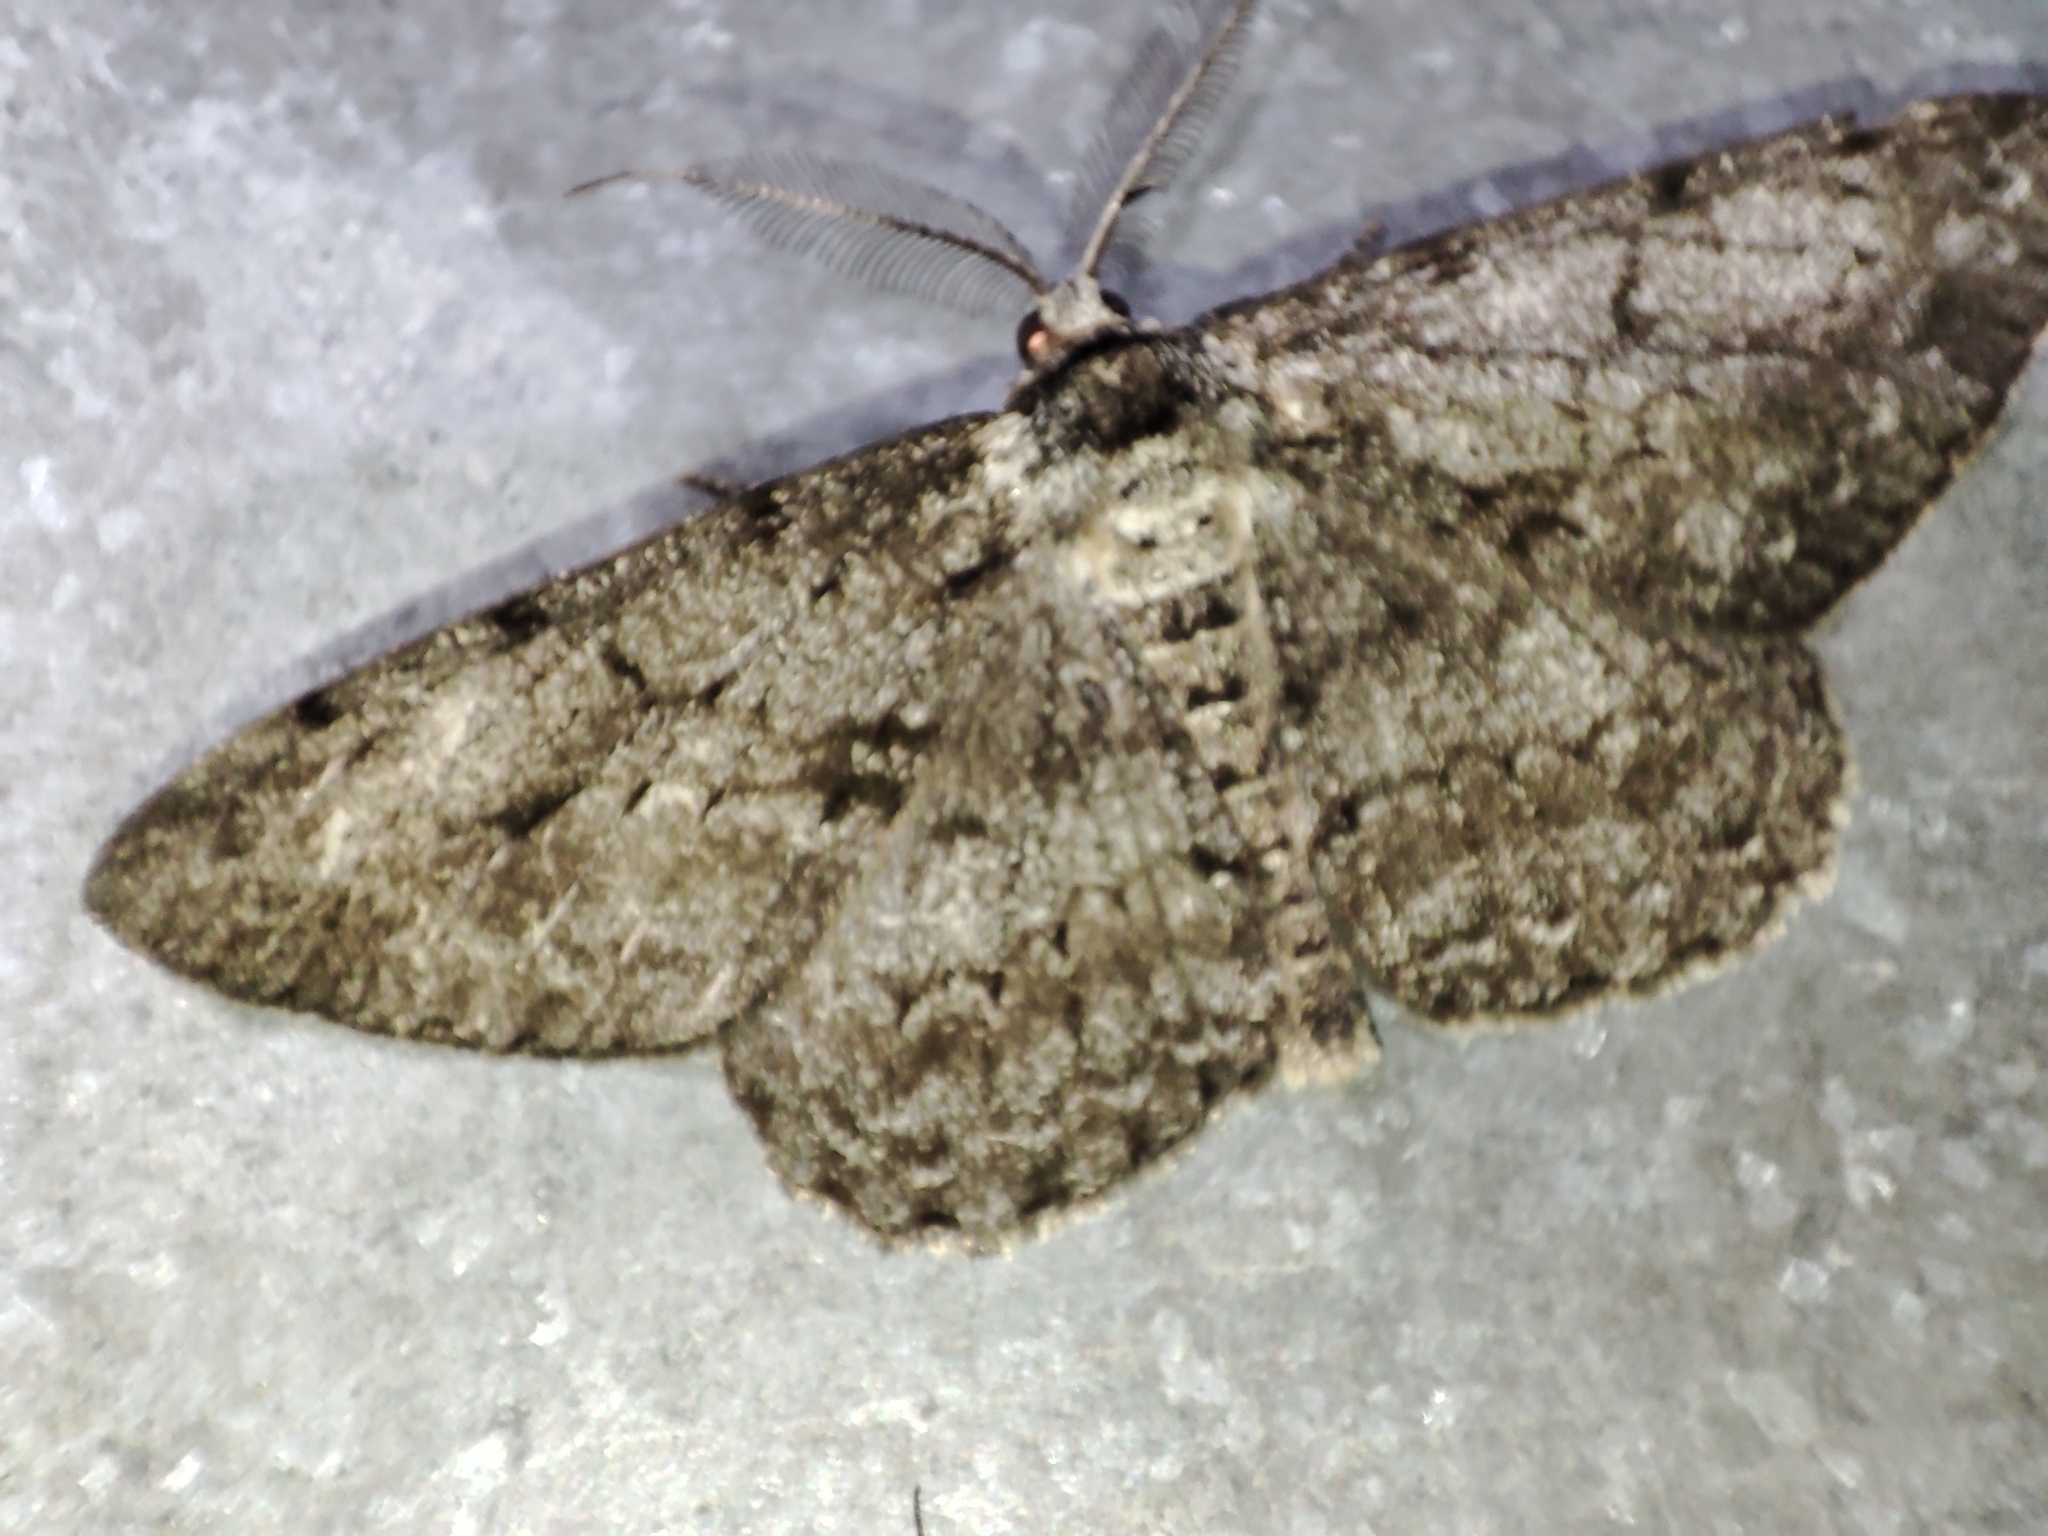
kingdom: Animalia
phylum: Arthropoda
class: Insecta
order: Lepidoptera
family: Geometridae
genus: Hypomecis
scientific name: Hypomecis roboraria
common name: Great oak beauty
